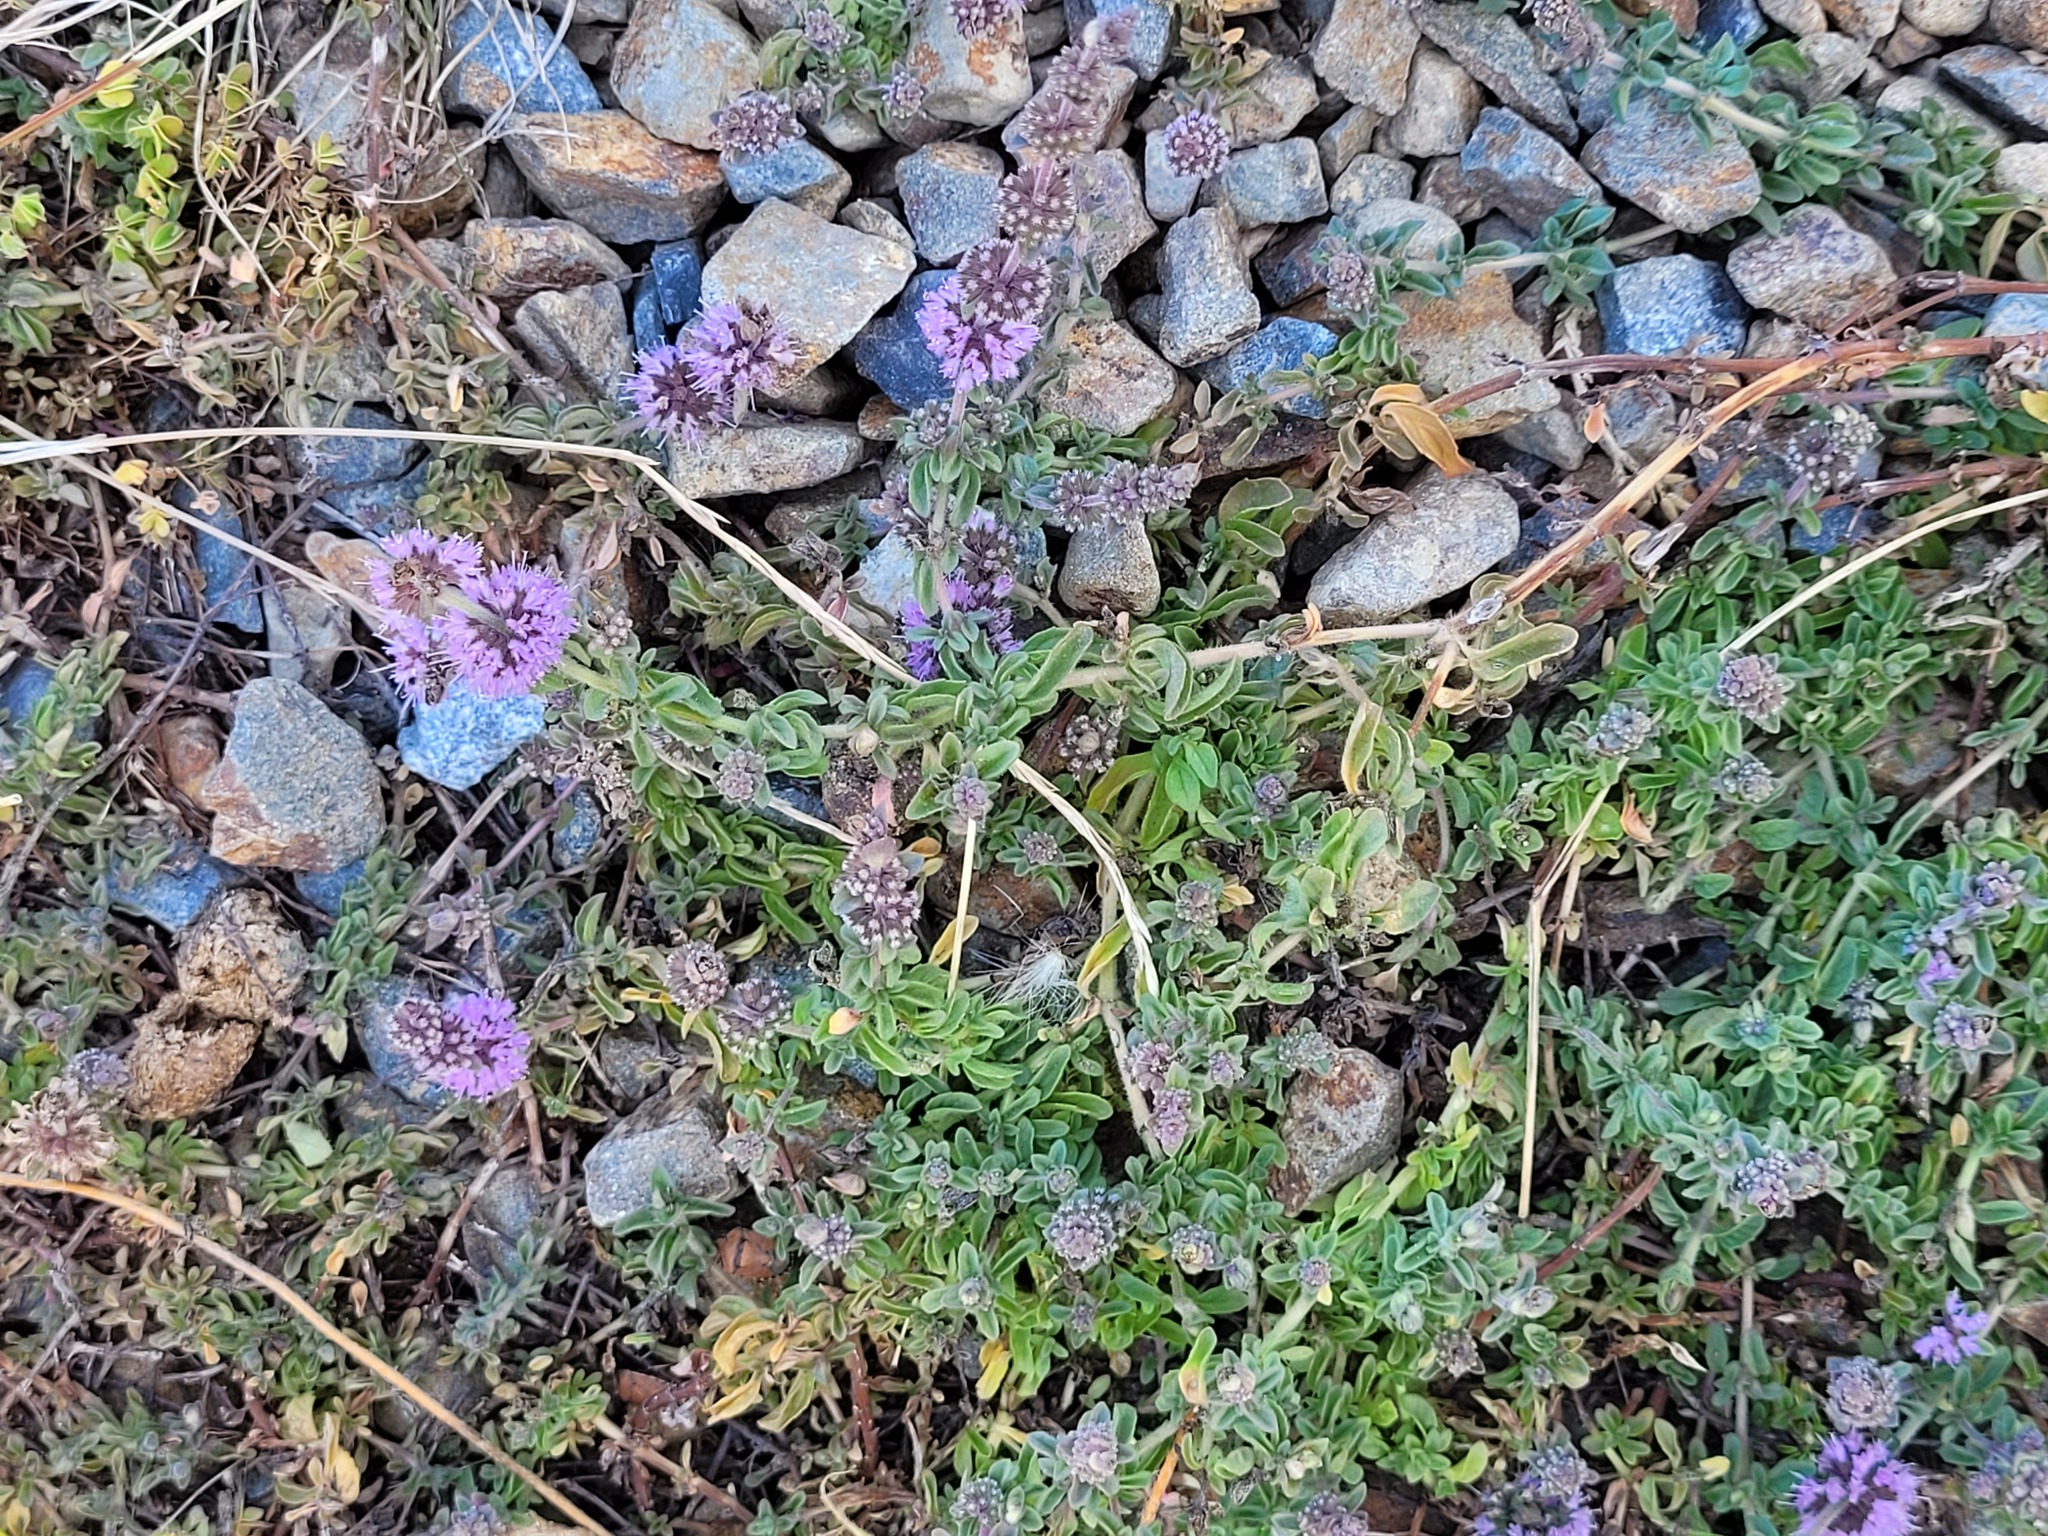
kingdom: Plantae
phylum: Tracheophyta
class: Magnoliopsida
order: Lamiales
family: Lamiaceae
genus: Mentha
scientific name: Mentha pulegium
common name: Pennyroyal
